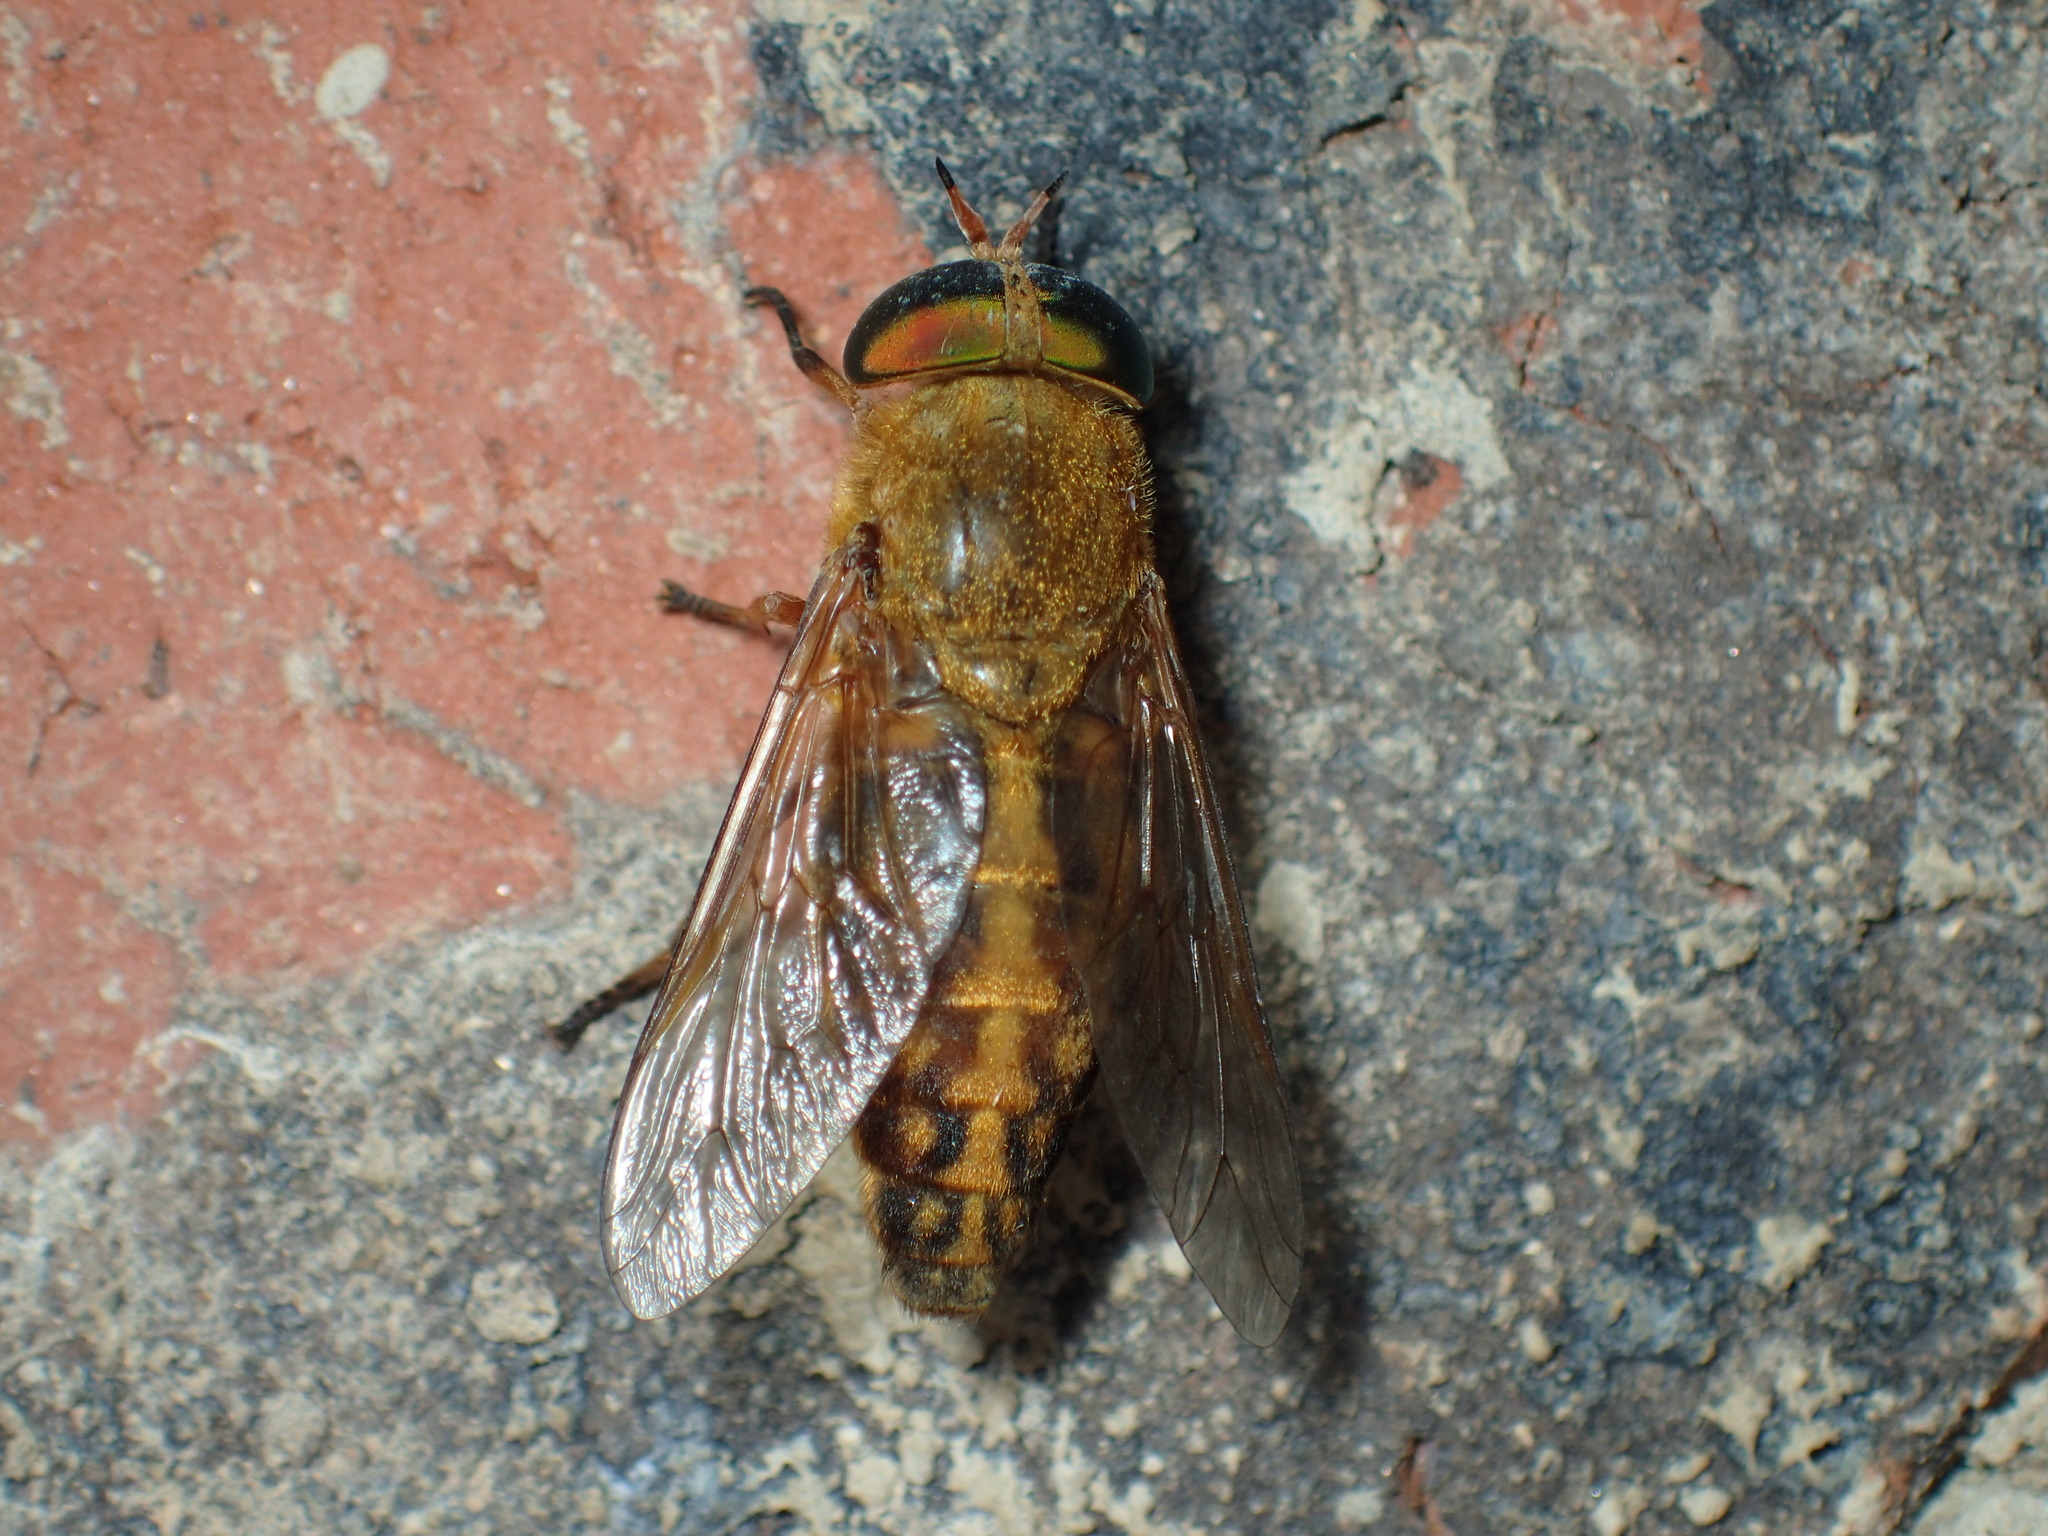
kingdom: Animalia
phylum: Arthropoda
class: Insecta
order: Diptera
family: Tabanidae
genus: Tabanus
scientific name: Tabanus fulvulus
